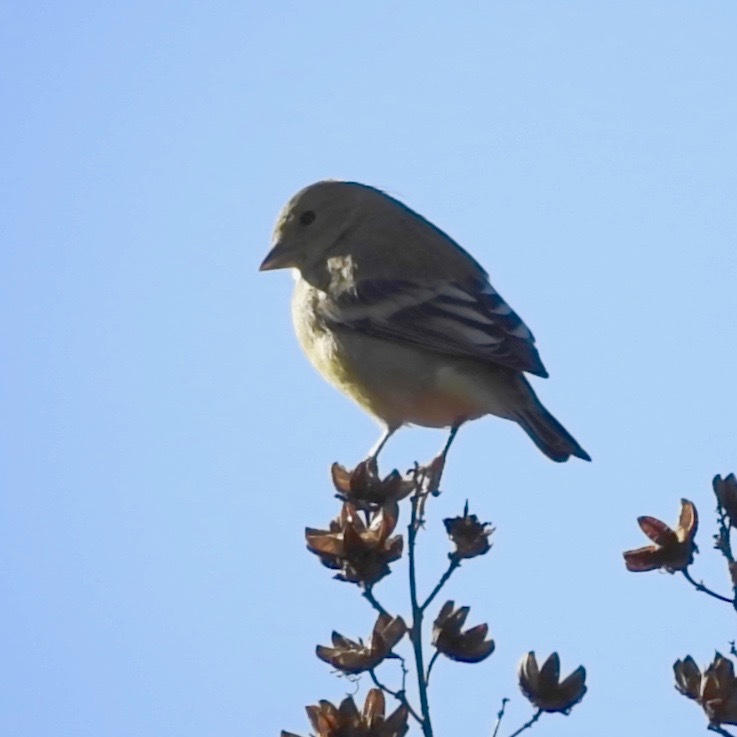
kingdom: Animalia
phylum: Chordata
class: Aves
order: Passeriformes
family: Fringillidae
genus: Spinus
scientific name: Spinus psaltria
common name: Lesser goldfinch
